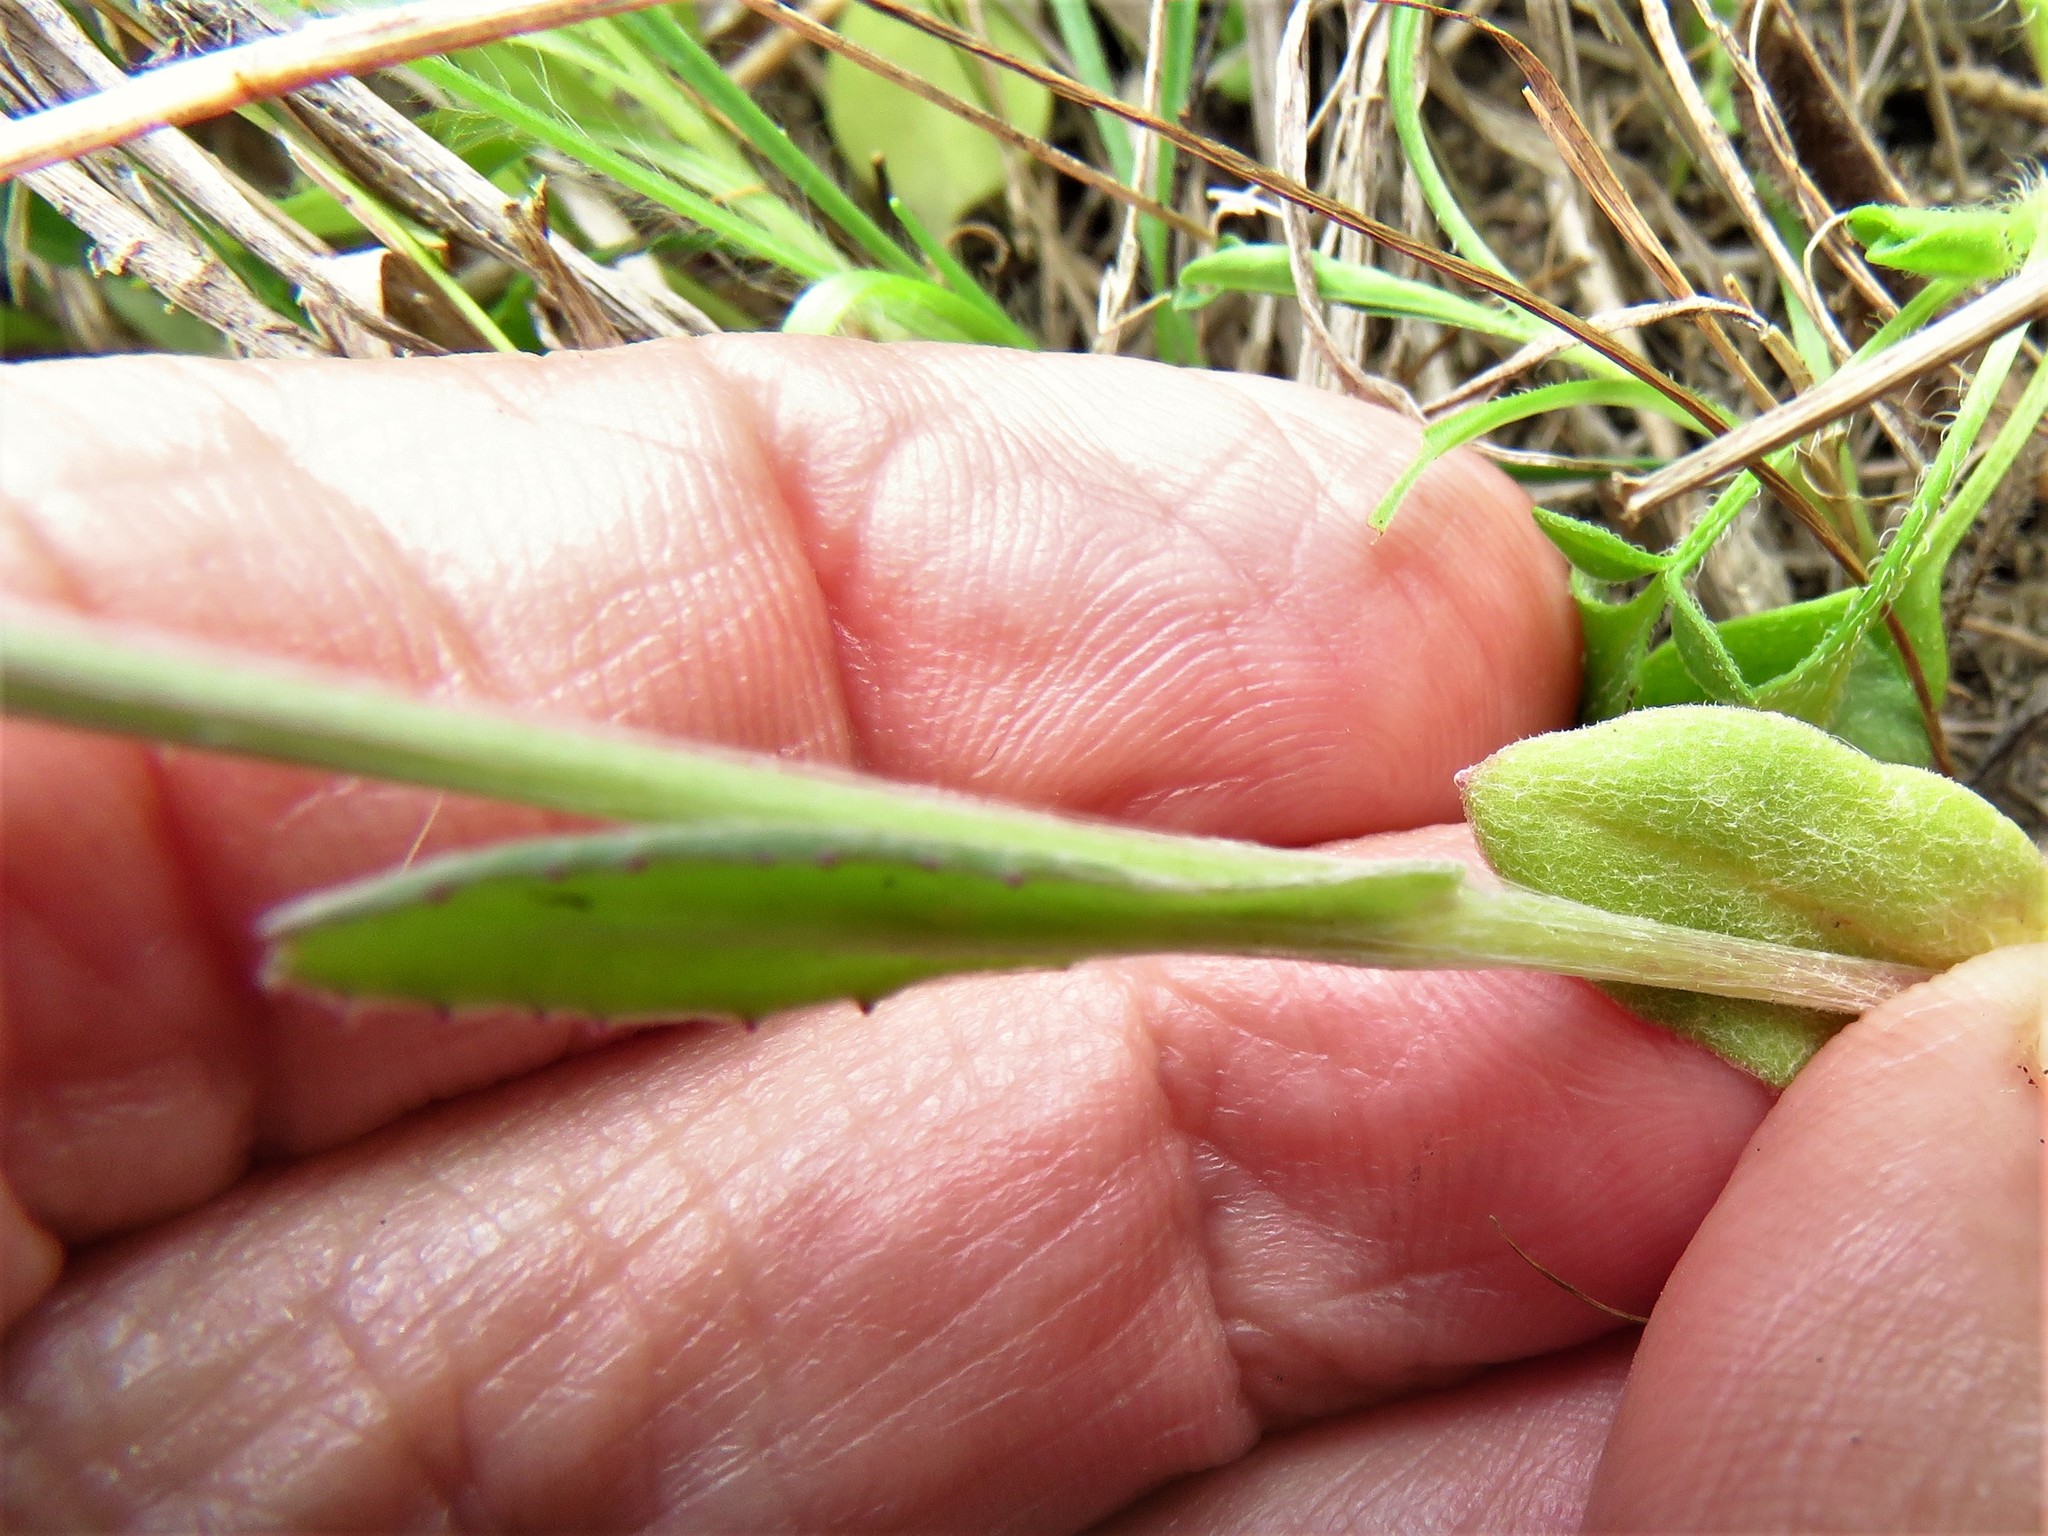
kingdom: Plantae
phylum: Tracheophyta
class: Magnoliopsida
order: Asterales
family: Asteraceae
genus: Senecio
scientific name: Senecio ampullaceus
